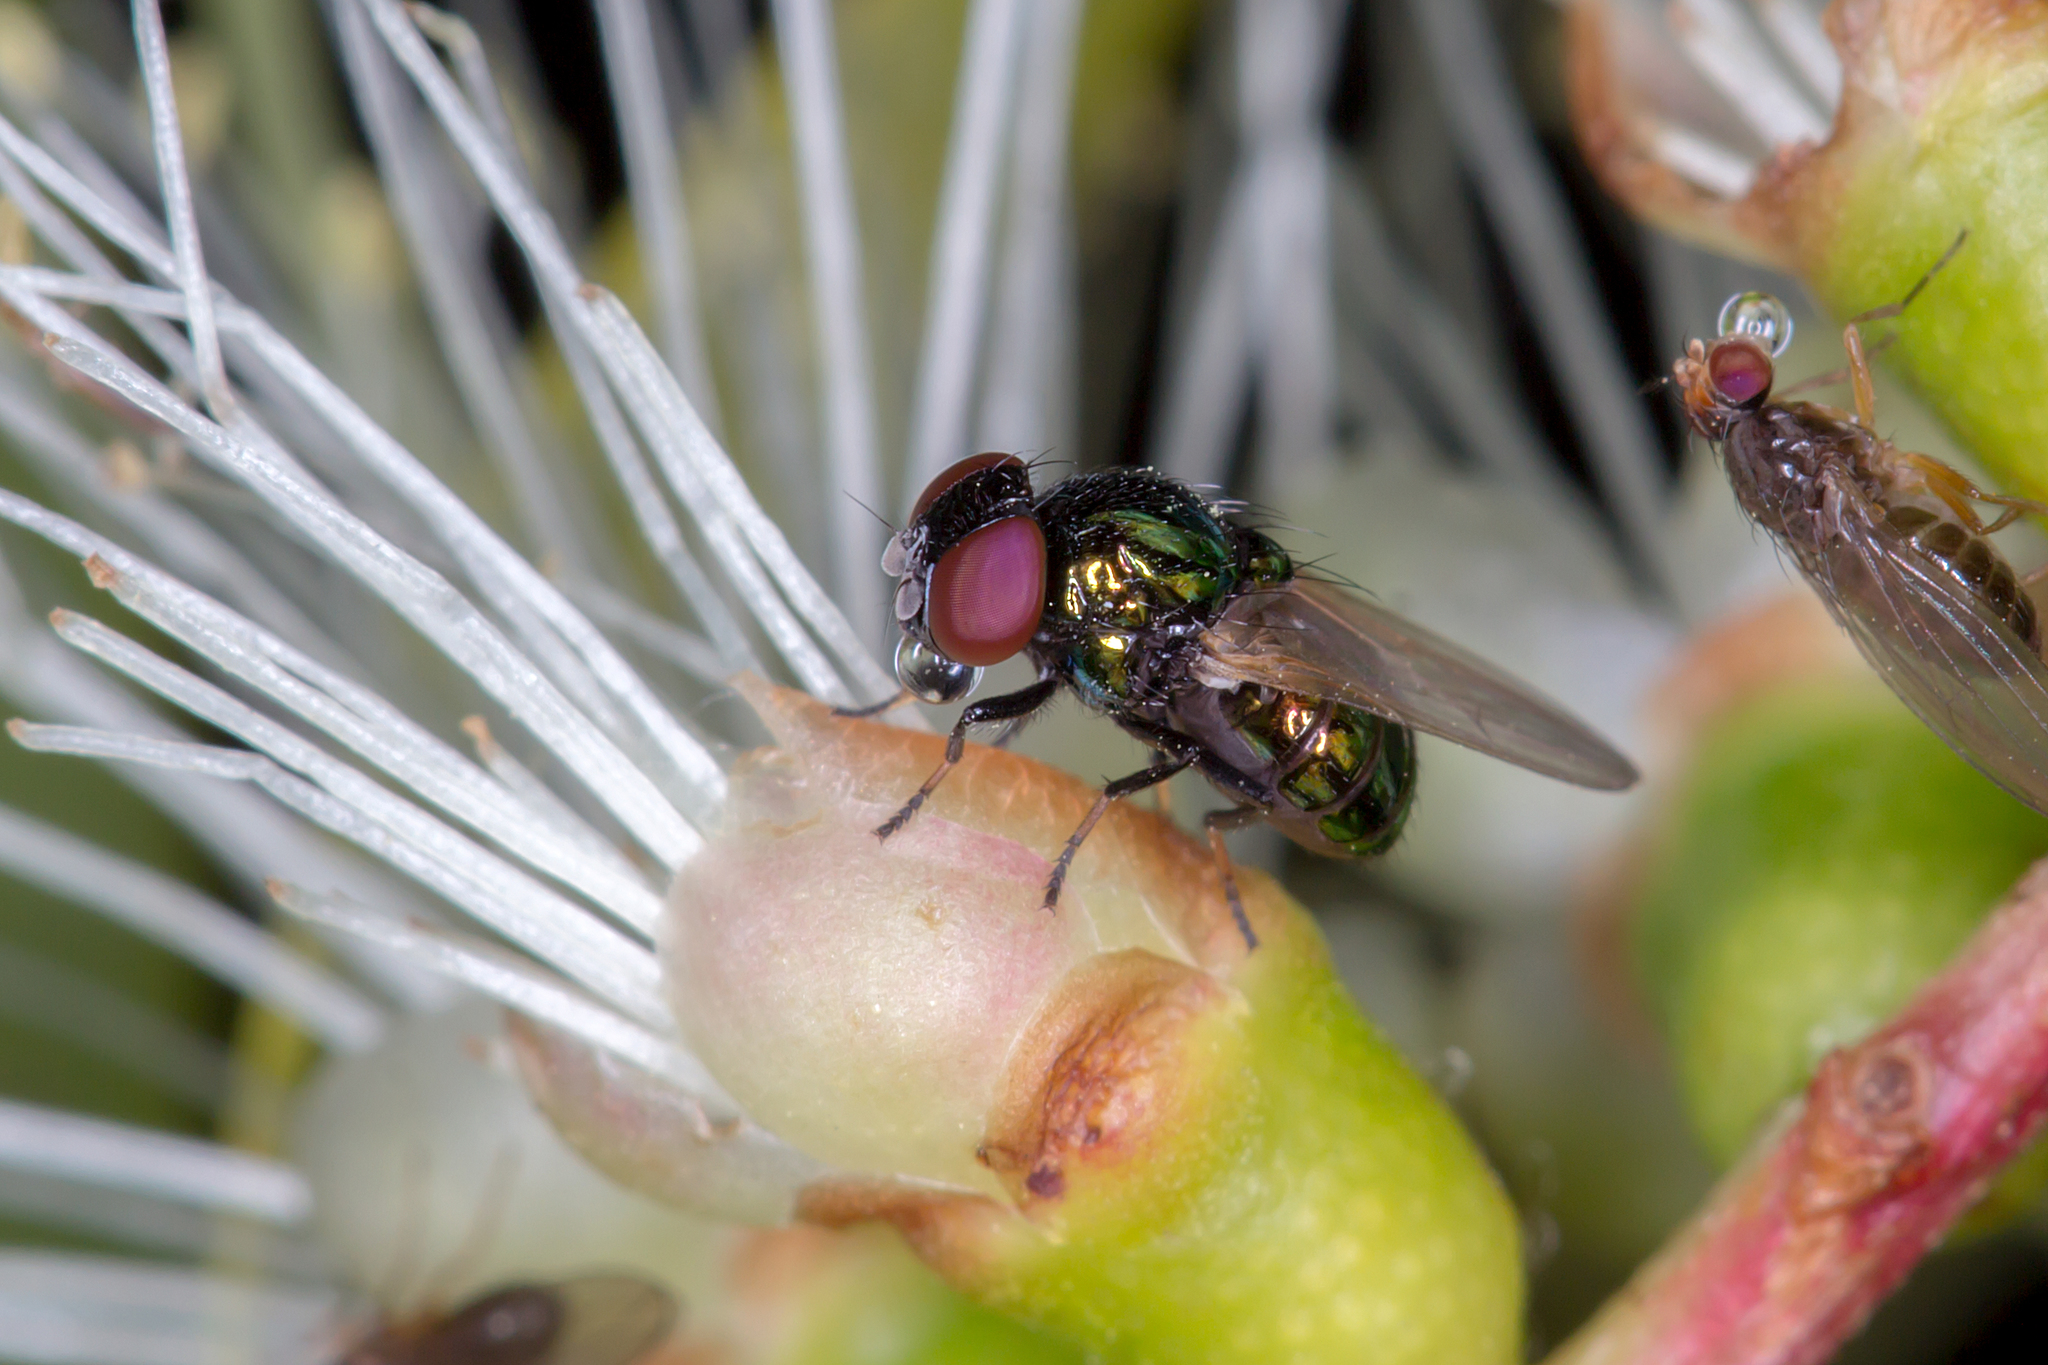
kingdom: Animalia
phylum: Arthropoda
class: Insecta
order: Diptera
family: Lonchaeidae
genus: Lamprolonchaea
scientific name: Lamprolonchaea brouniana
